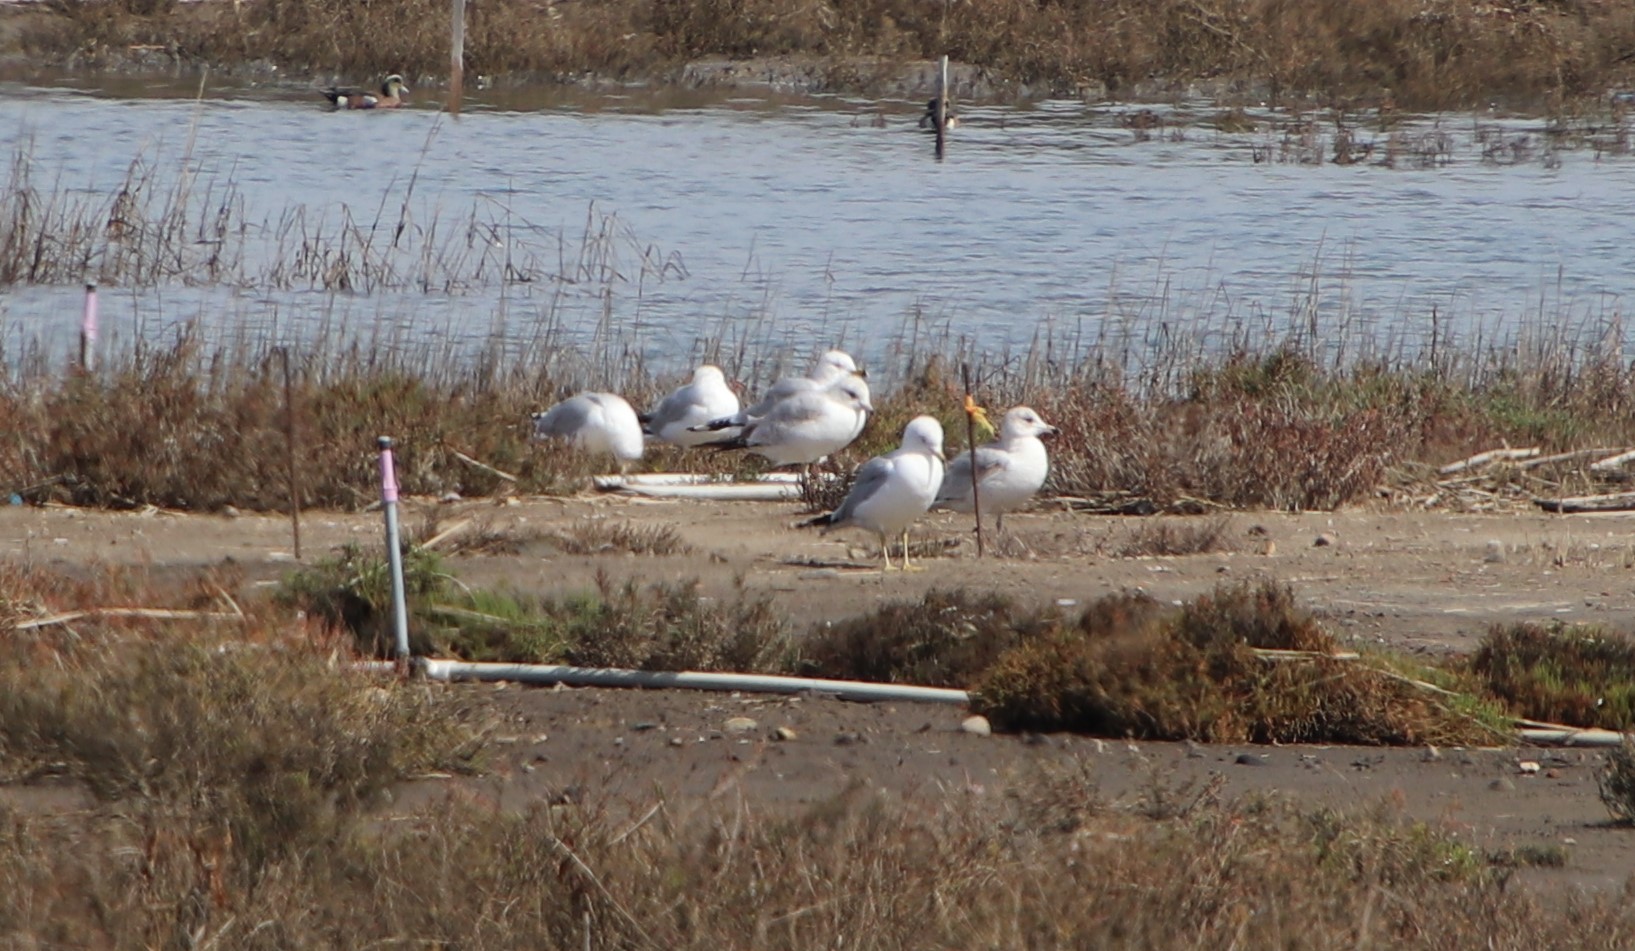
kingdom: Animalia
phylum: Chordata
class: Aves
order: Charadriiformes
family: Laridae
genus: Larus
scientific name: Larus delawarensis
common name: Ring-billed gull
